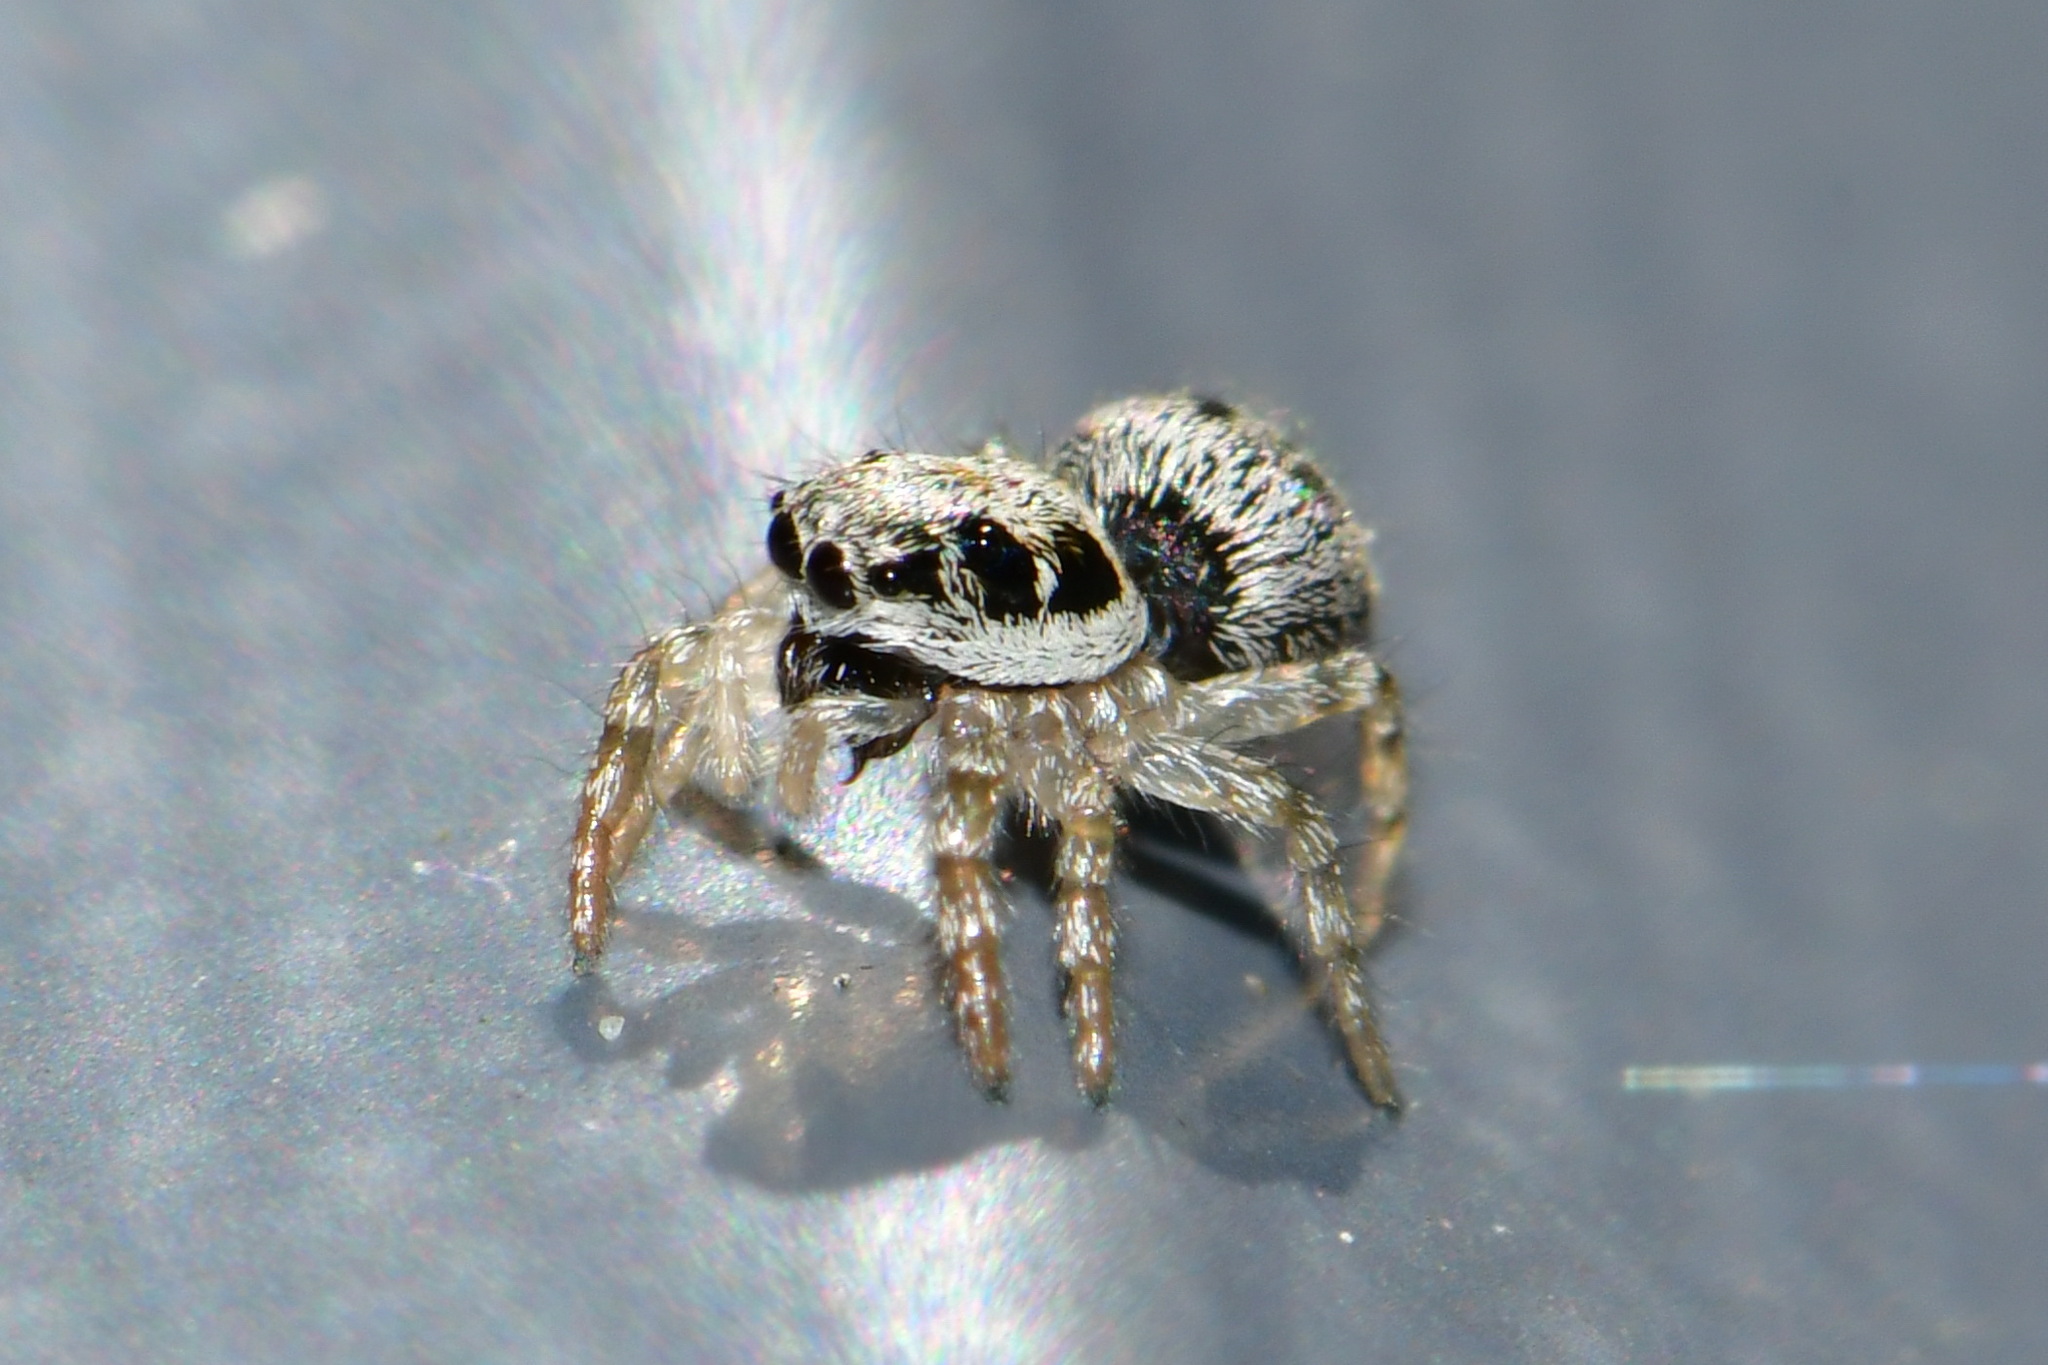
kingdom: Animalia
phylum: Arthropoda
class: Arachnida
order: Araneae
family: Salticidae
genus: Salticus
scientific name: Salticus cingulatus
